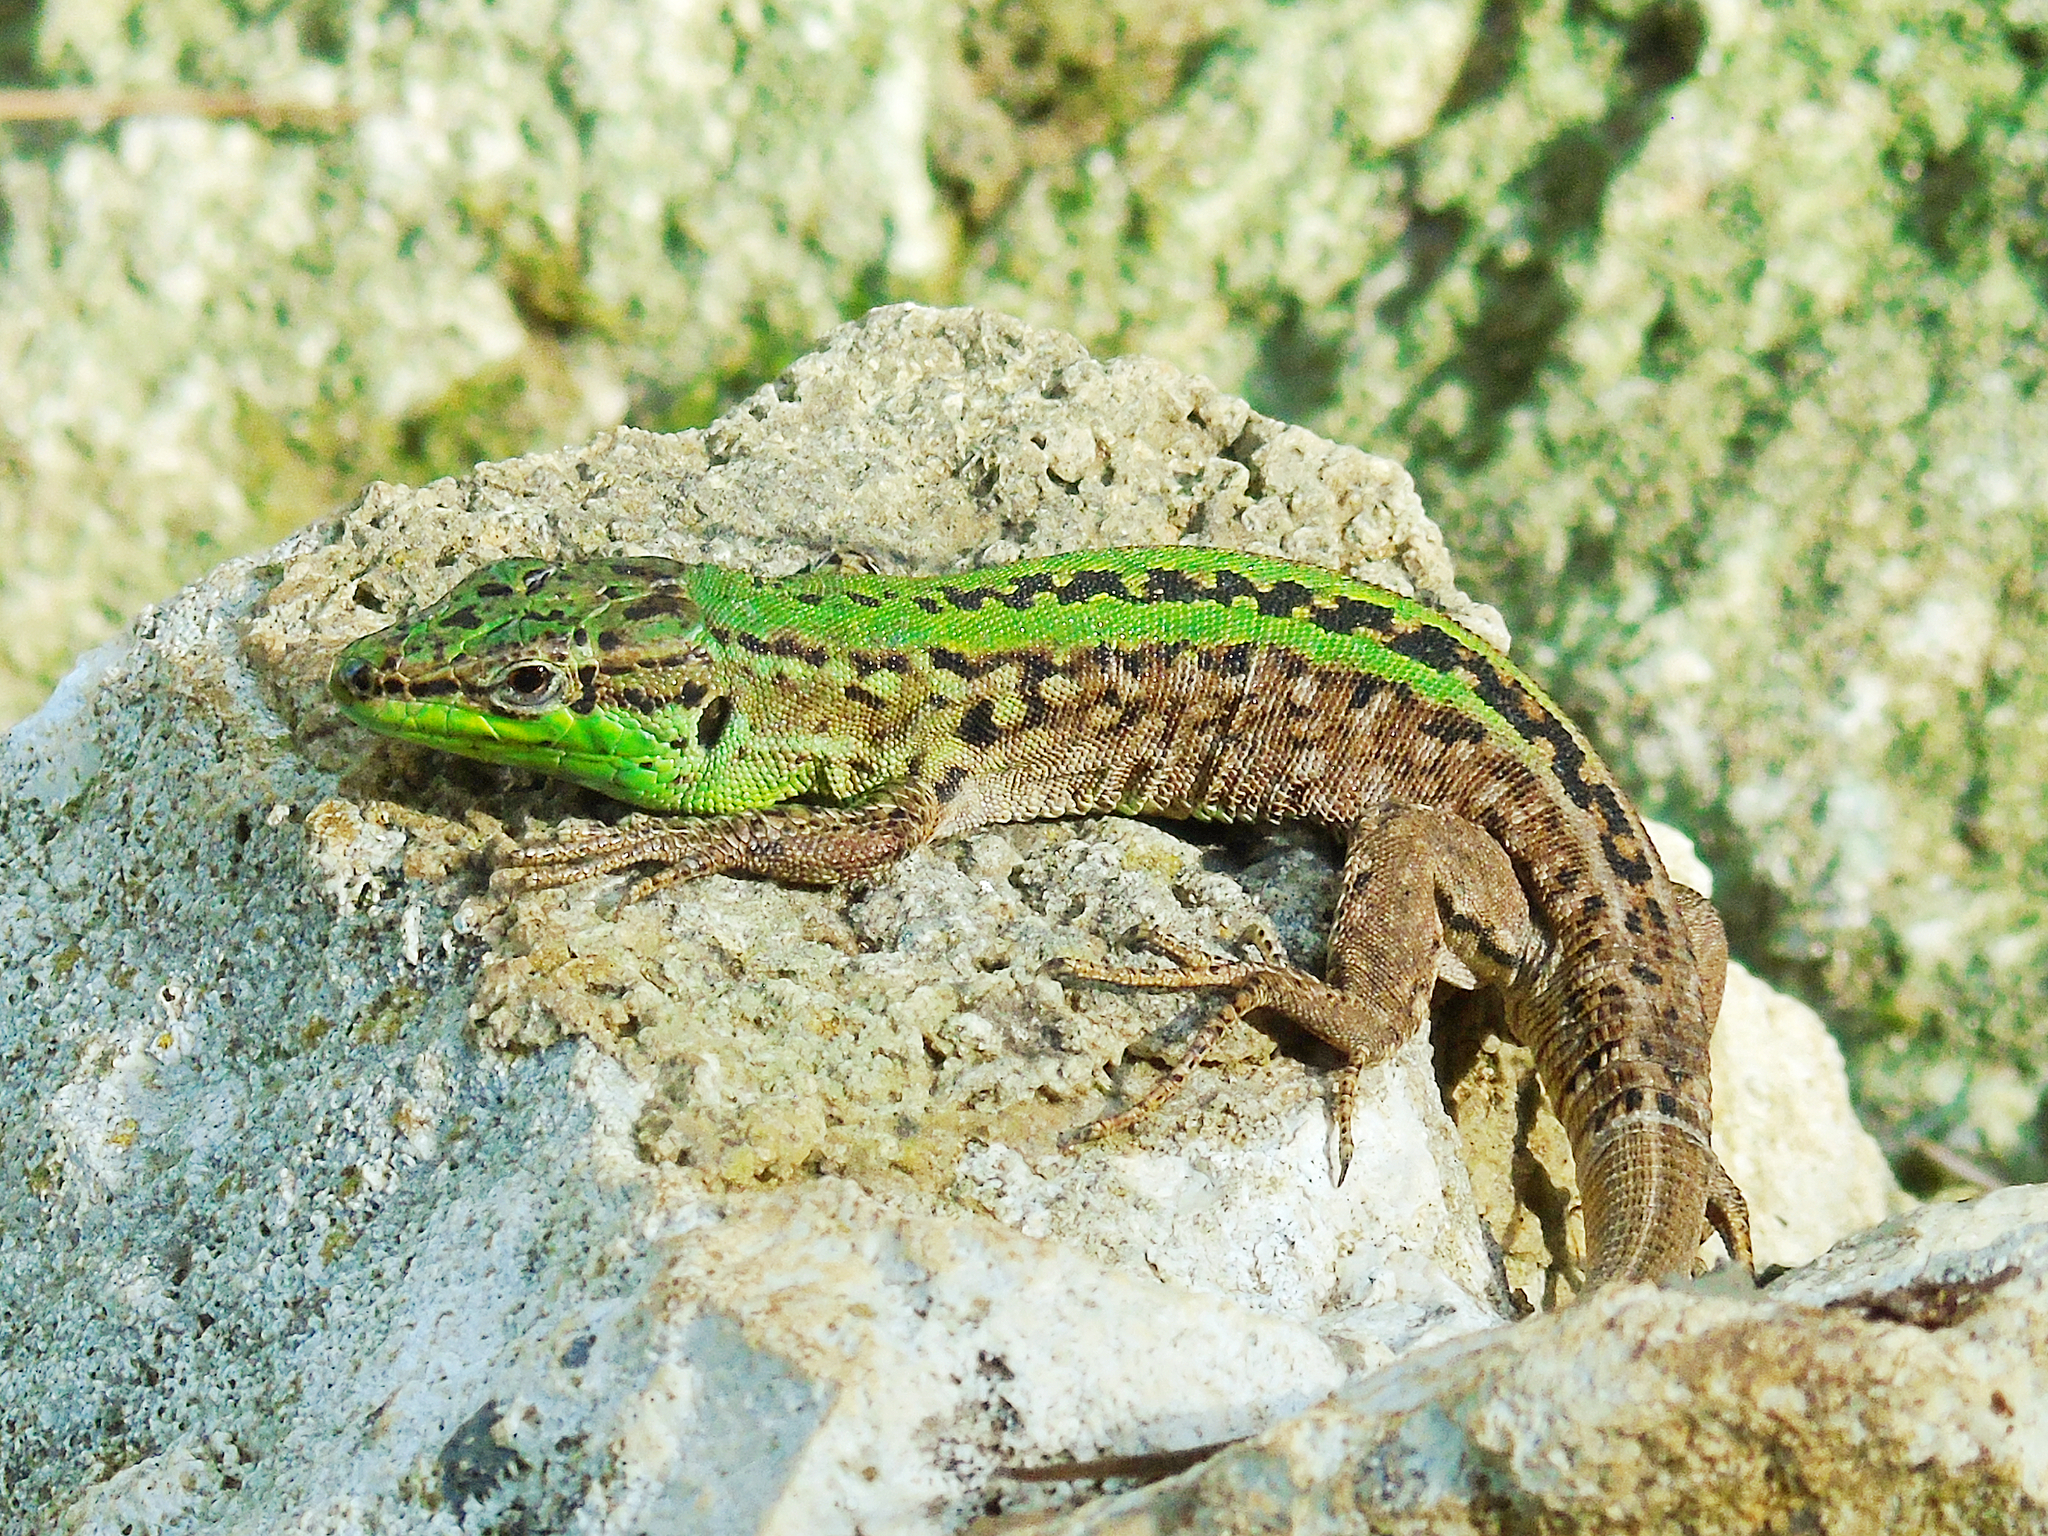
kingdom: Animalia
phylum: Chordata
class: Squamata
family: Lacertidae
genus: Podarcis
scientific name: Podarcis siculus
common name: Italian wall lizard
